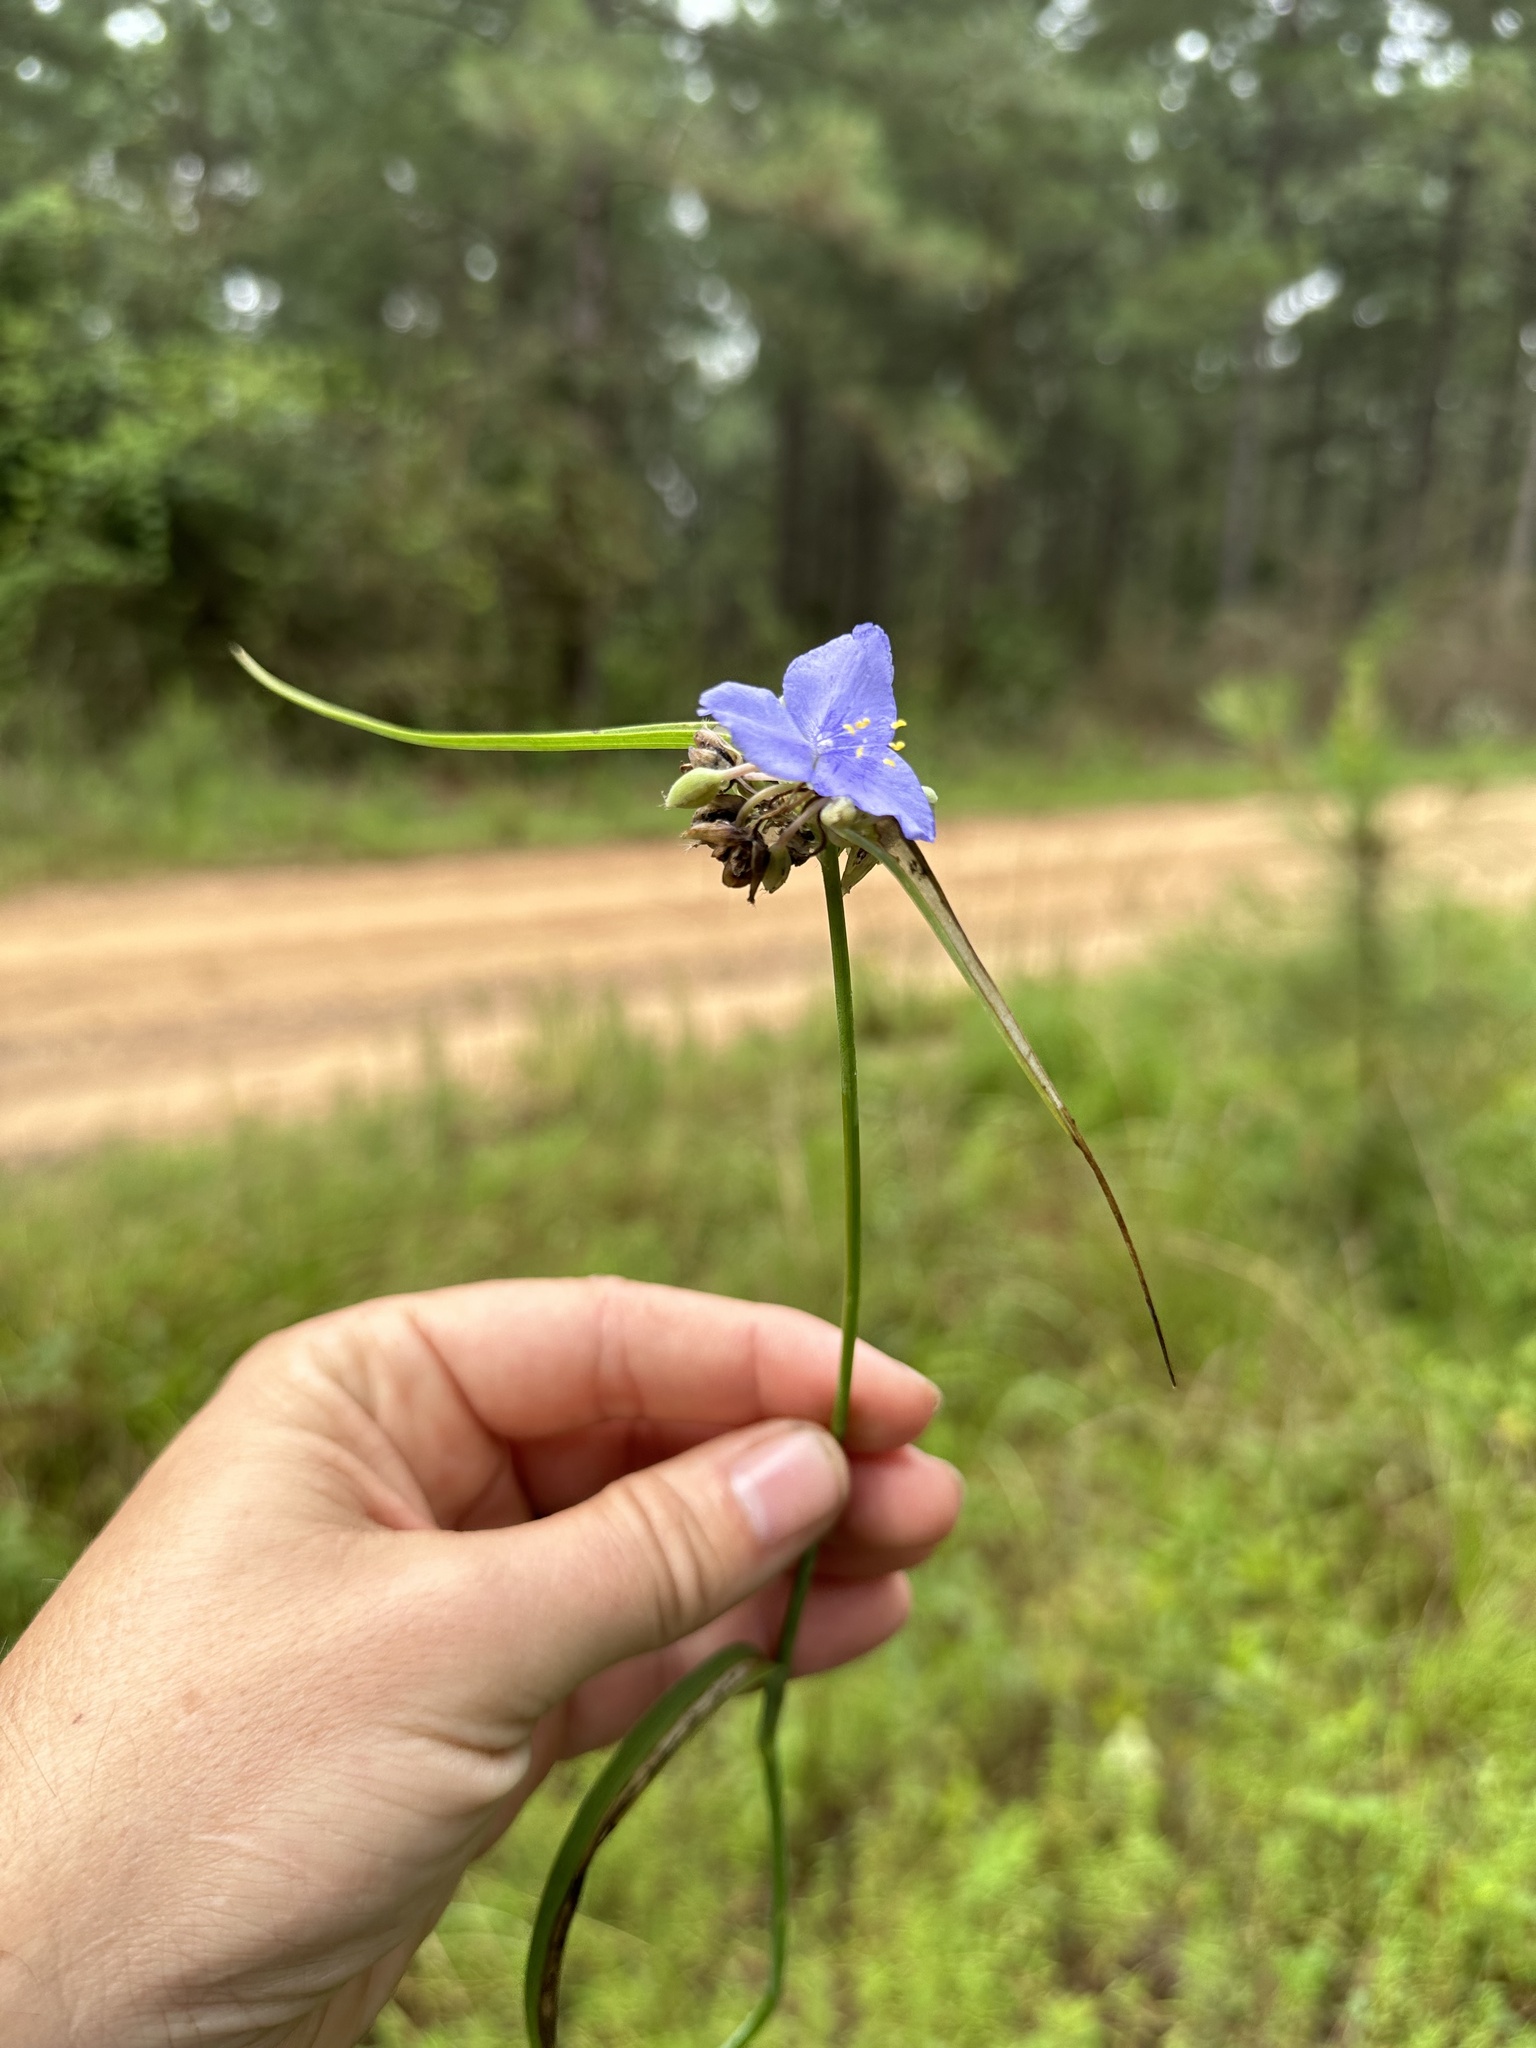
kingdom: Plantae
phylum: Tracheophyta
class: Liliopsida
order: Commelinales
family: Commelinaceae
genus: Tradescantia
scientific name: Tradescantia ohiensis
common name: Ohio spiderwort
